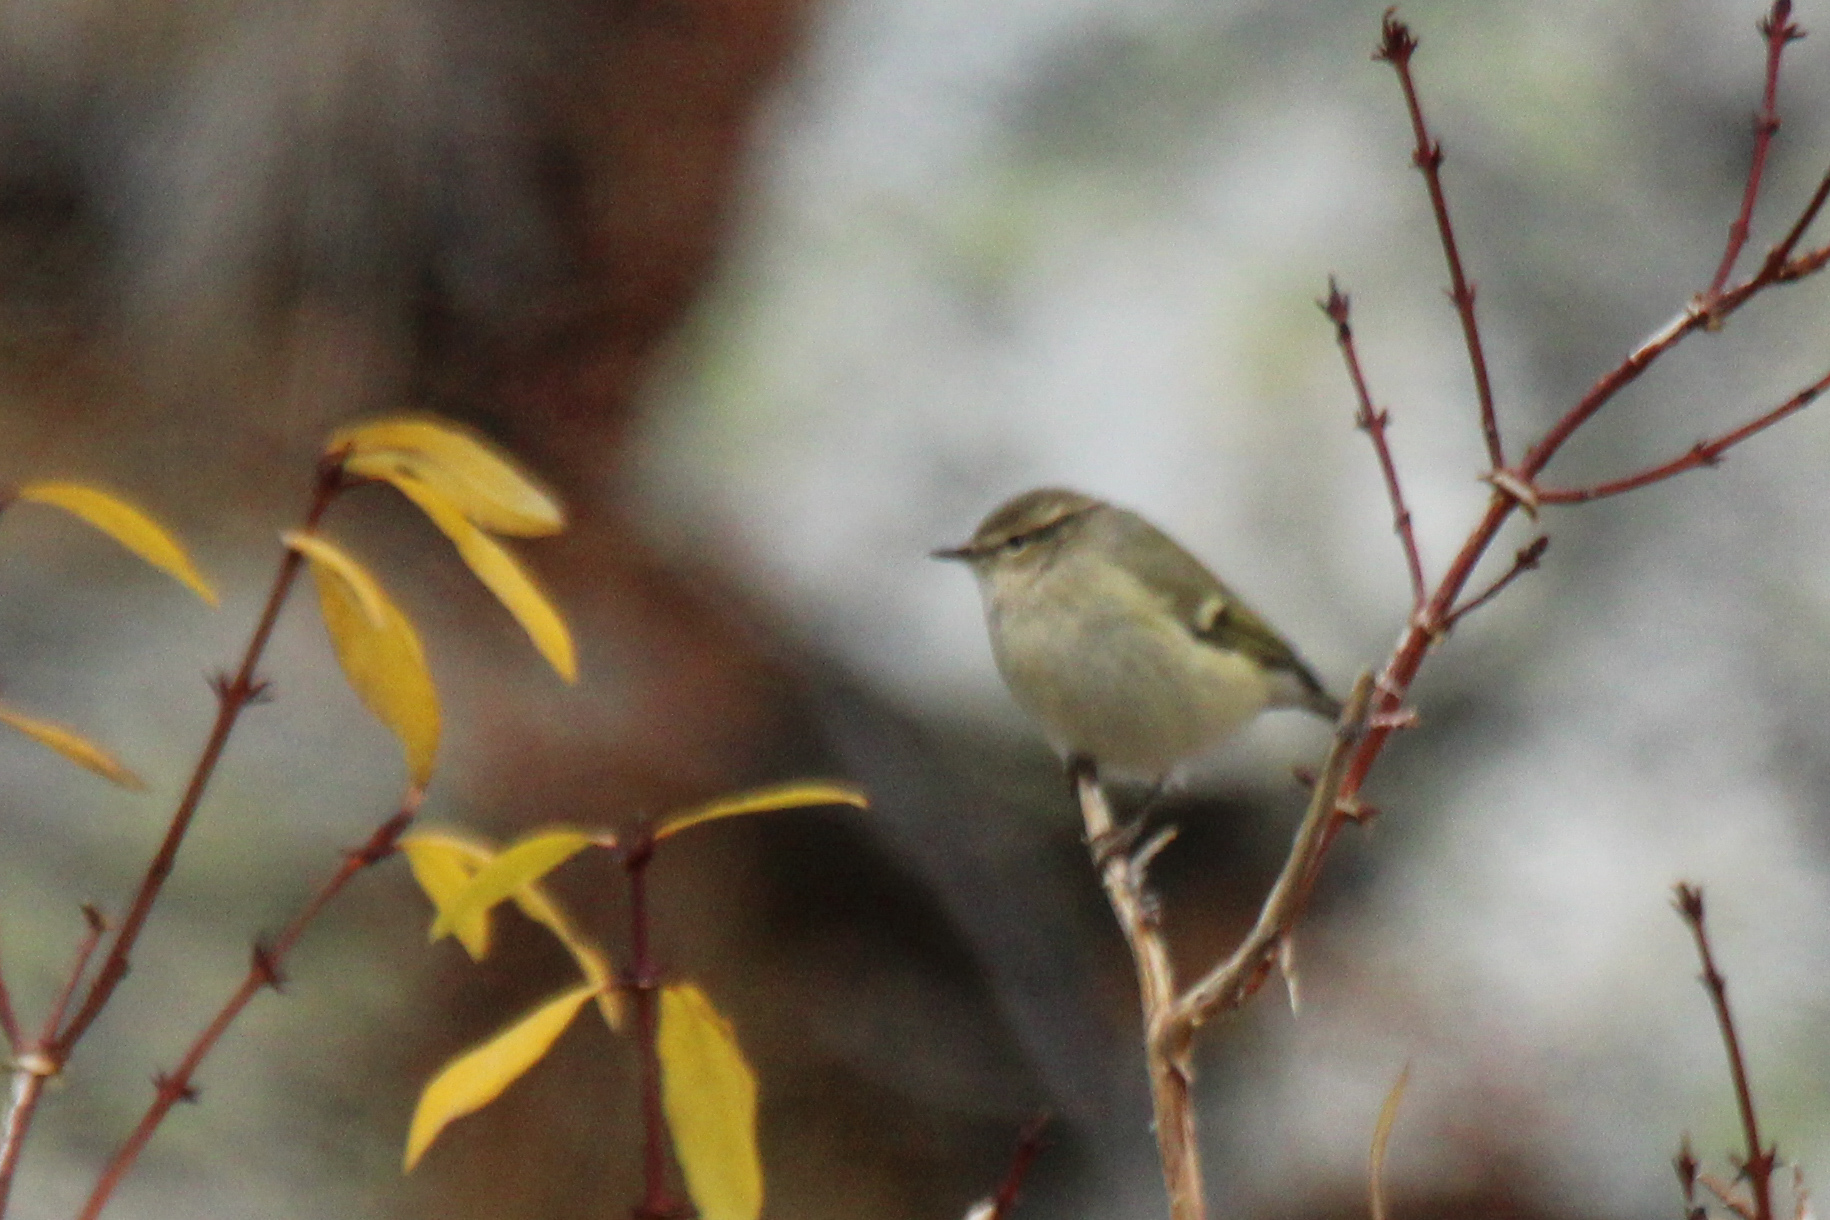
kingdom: Animalia
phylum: Chordata
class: Aves
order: Passeriformes
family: Phylloscopidae
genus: Phylloscopus
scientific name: Phylloscopus humei
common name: Hume's leaf warbler
